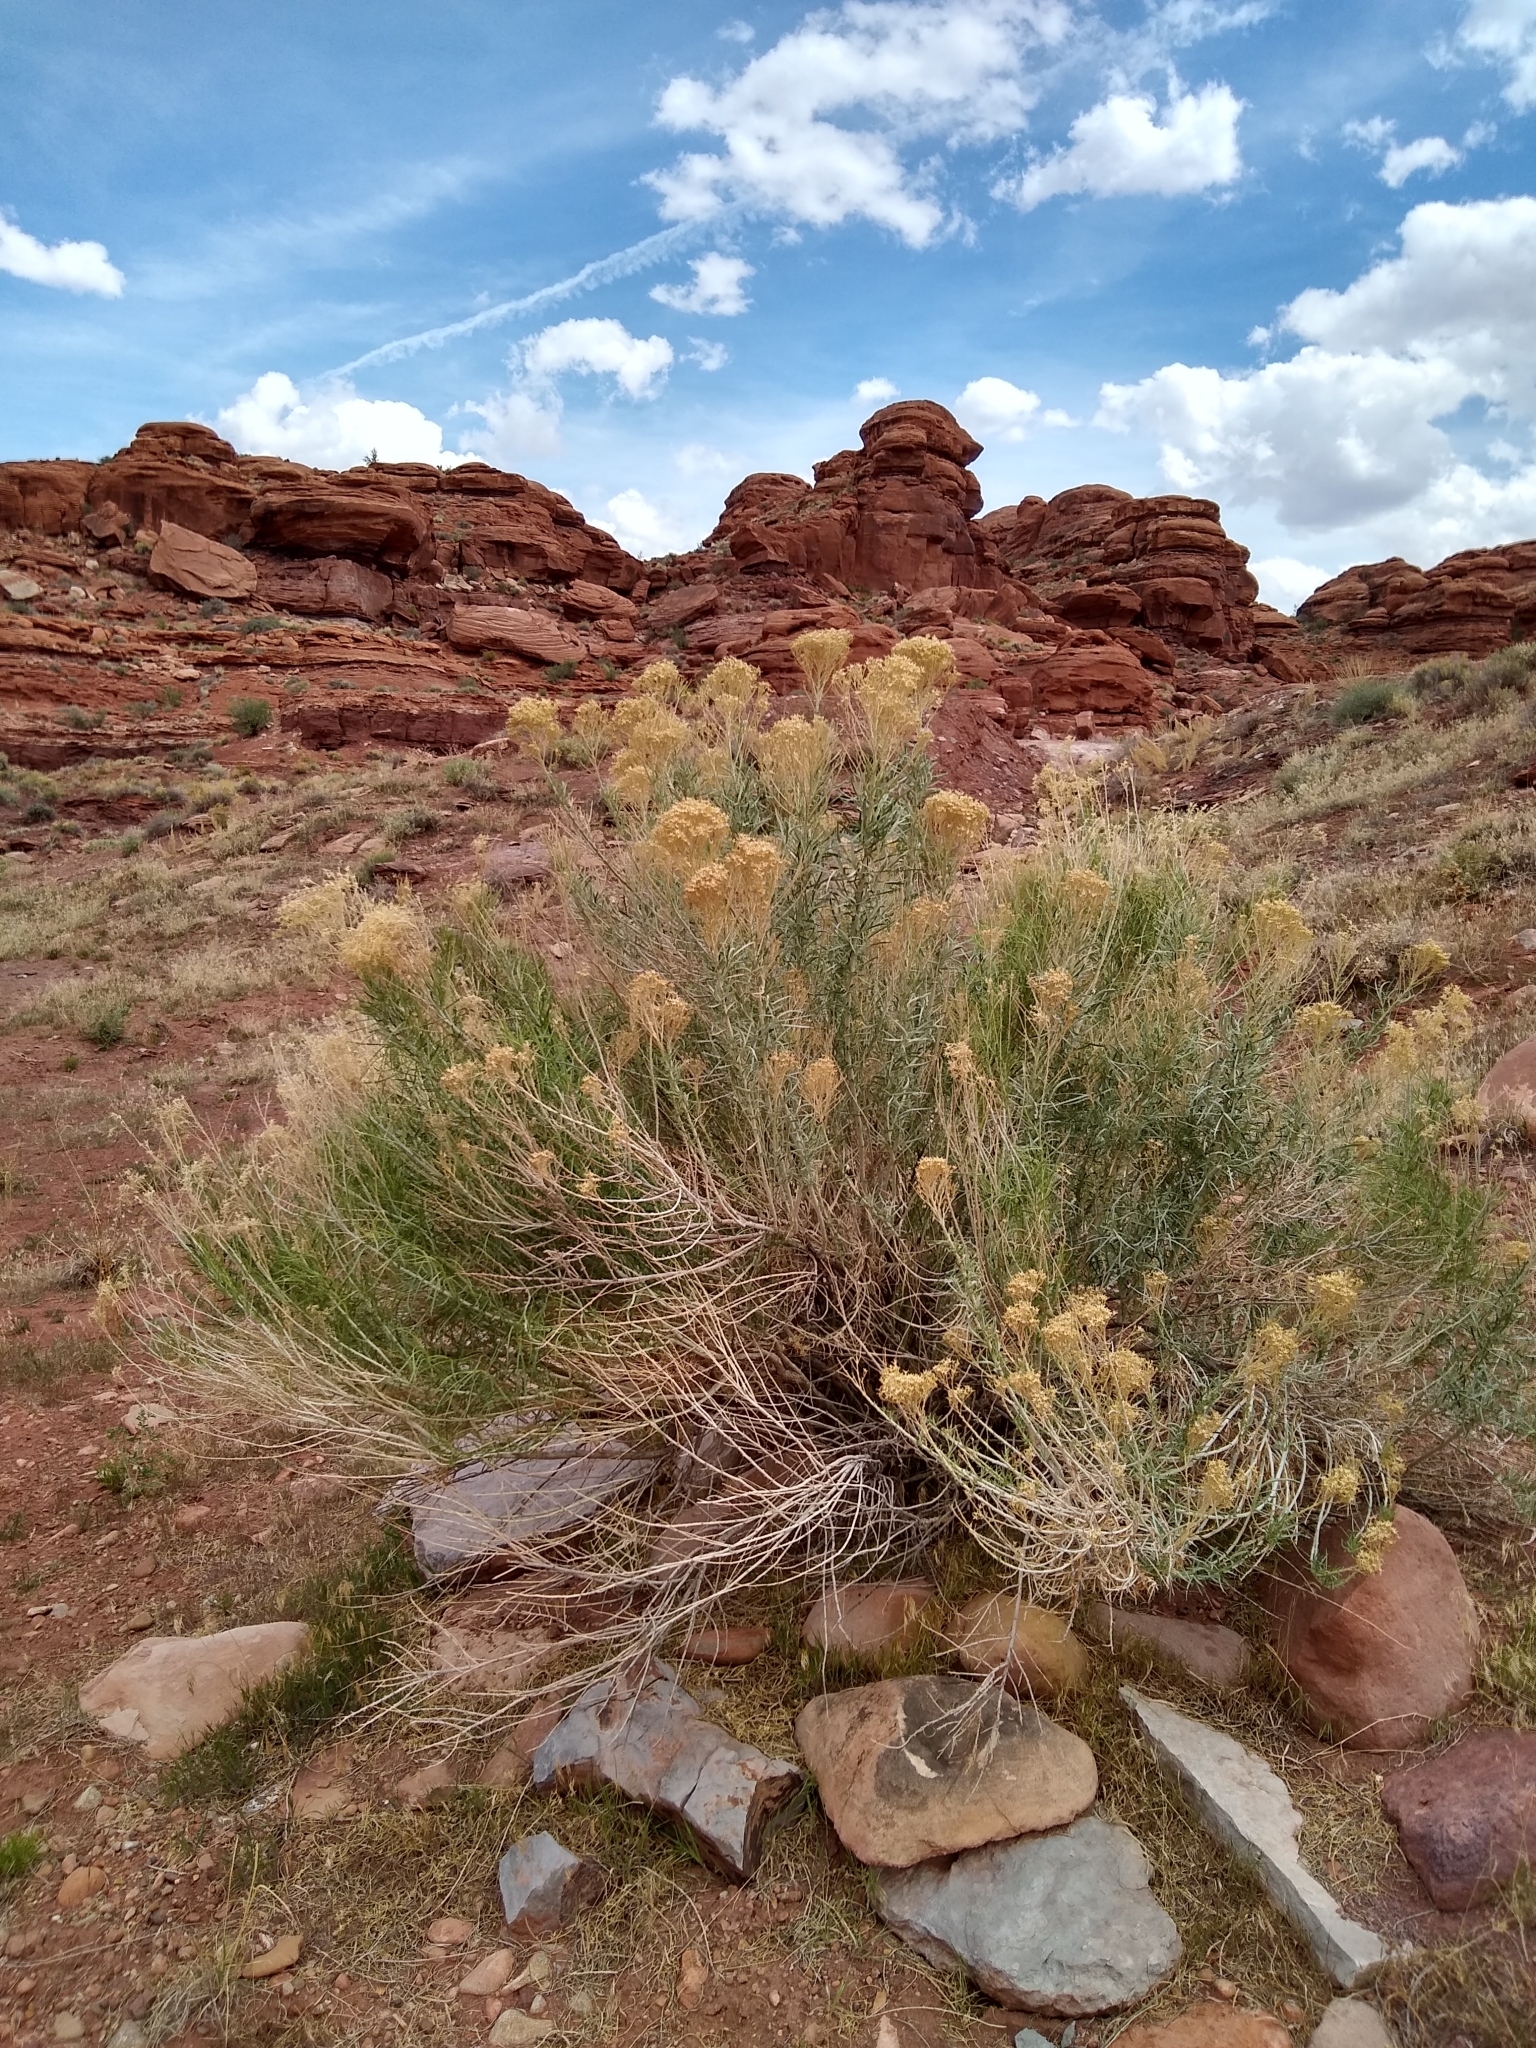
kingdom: Plantae
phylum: Tracheophyta
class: Magnoliopsida
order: Asterales
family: Asteraceae
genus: Ericameria
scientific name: Ericameria nauseosa
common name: Rubber rabbitbrush
